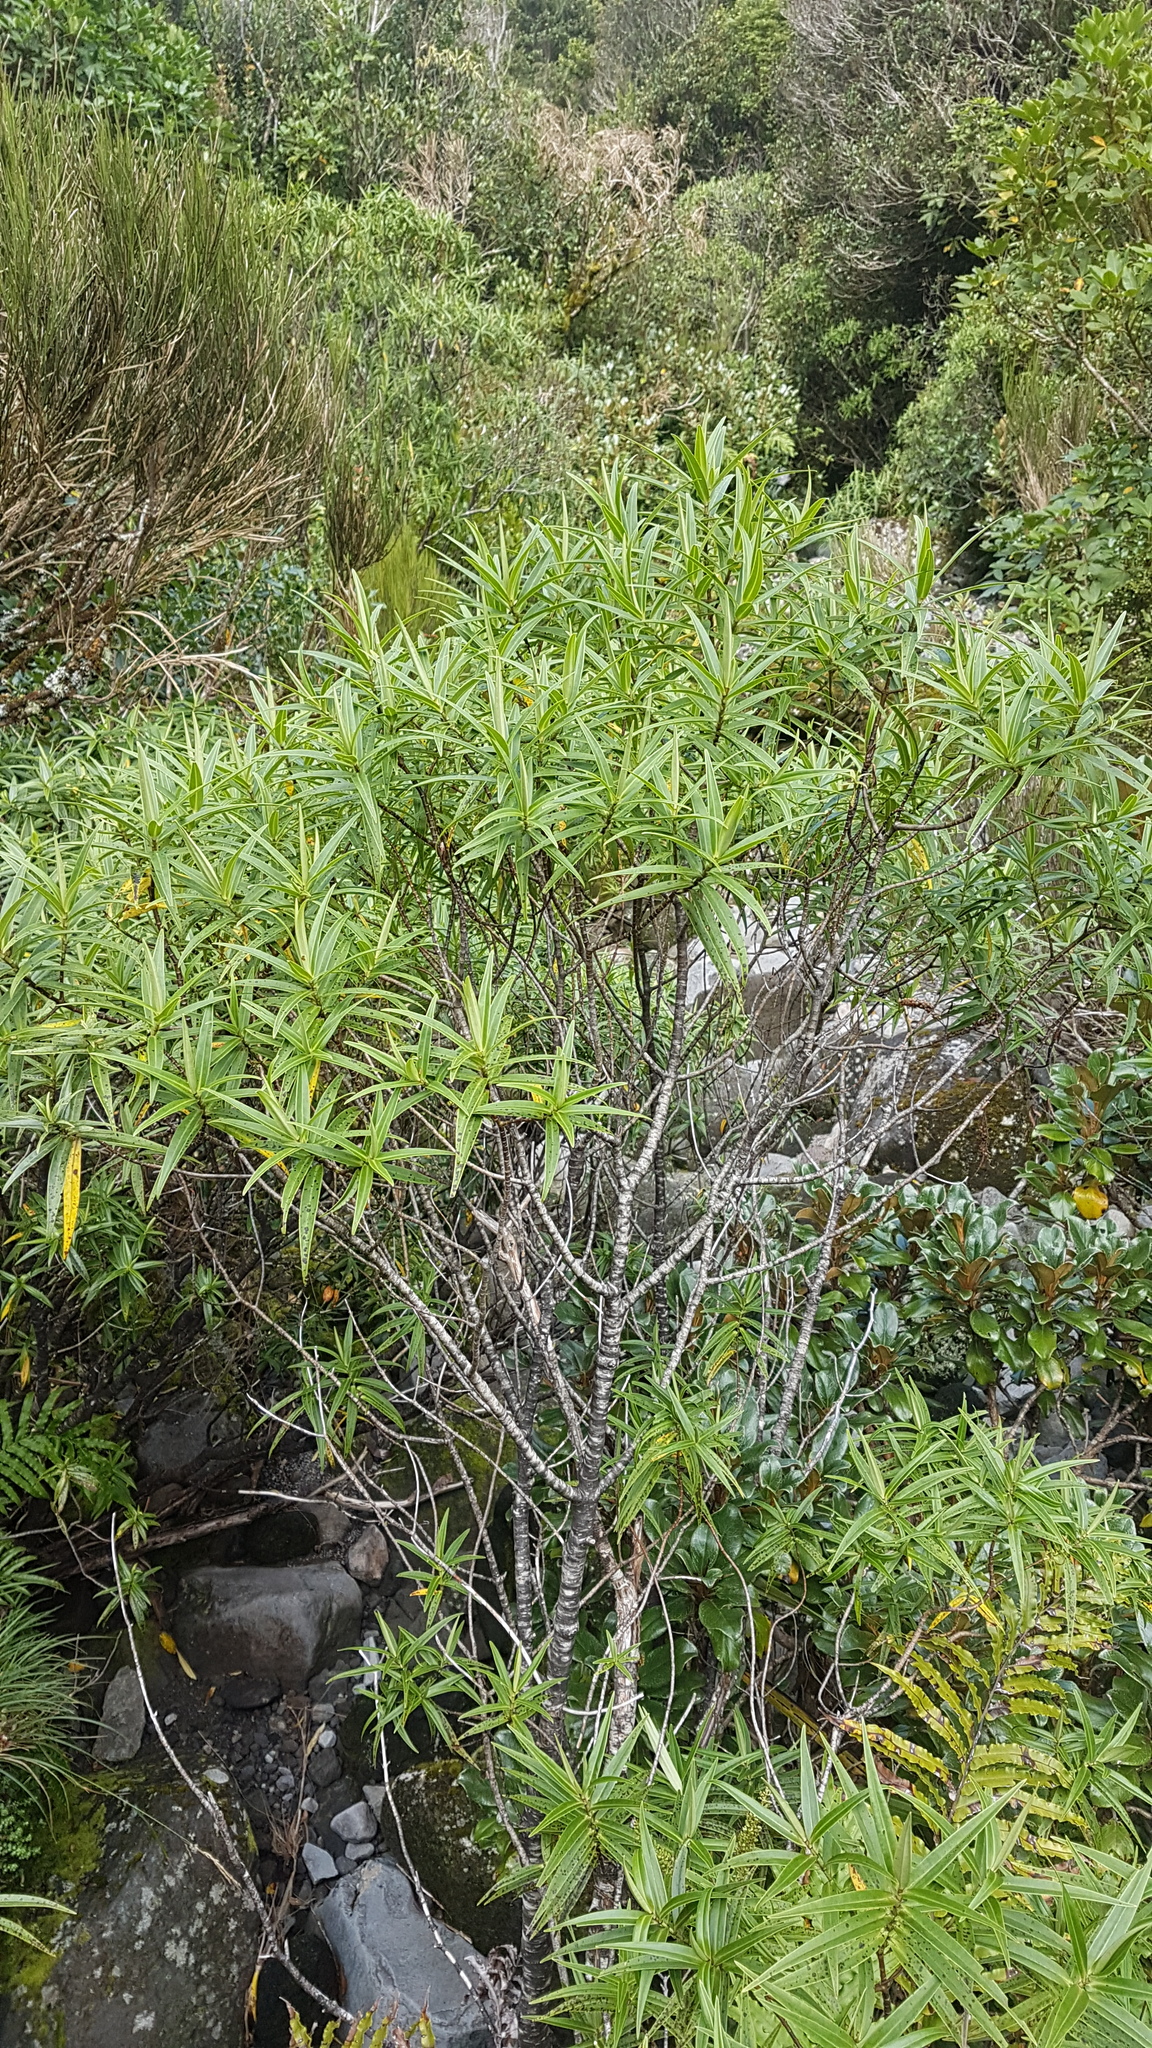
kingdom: Plantae
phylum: Tracheophyta
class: Magnoliopsida
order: Lamiales
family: Plantaginaceae
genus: Veronica
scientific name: Veronica stricta
